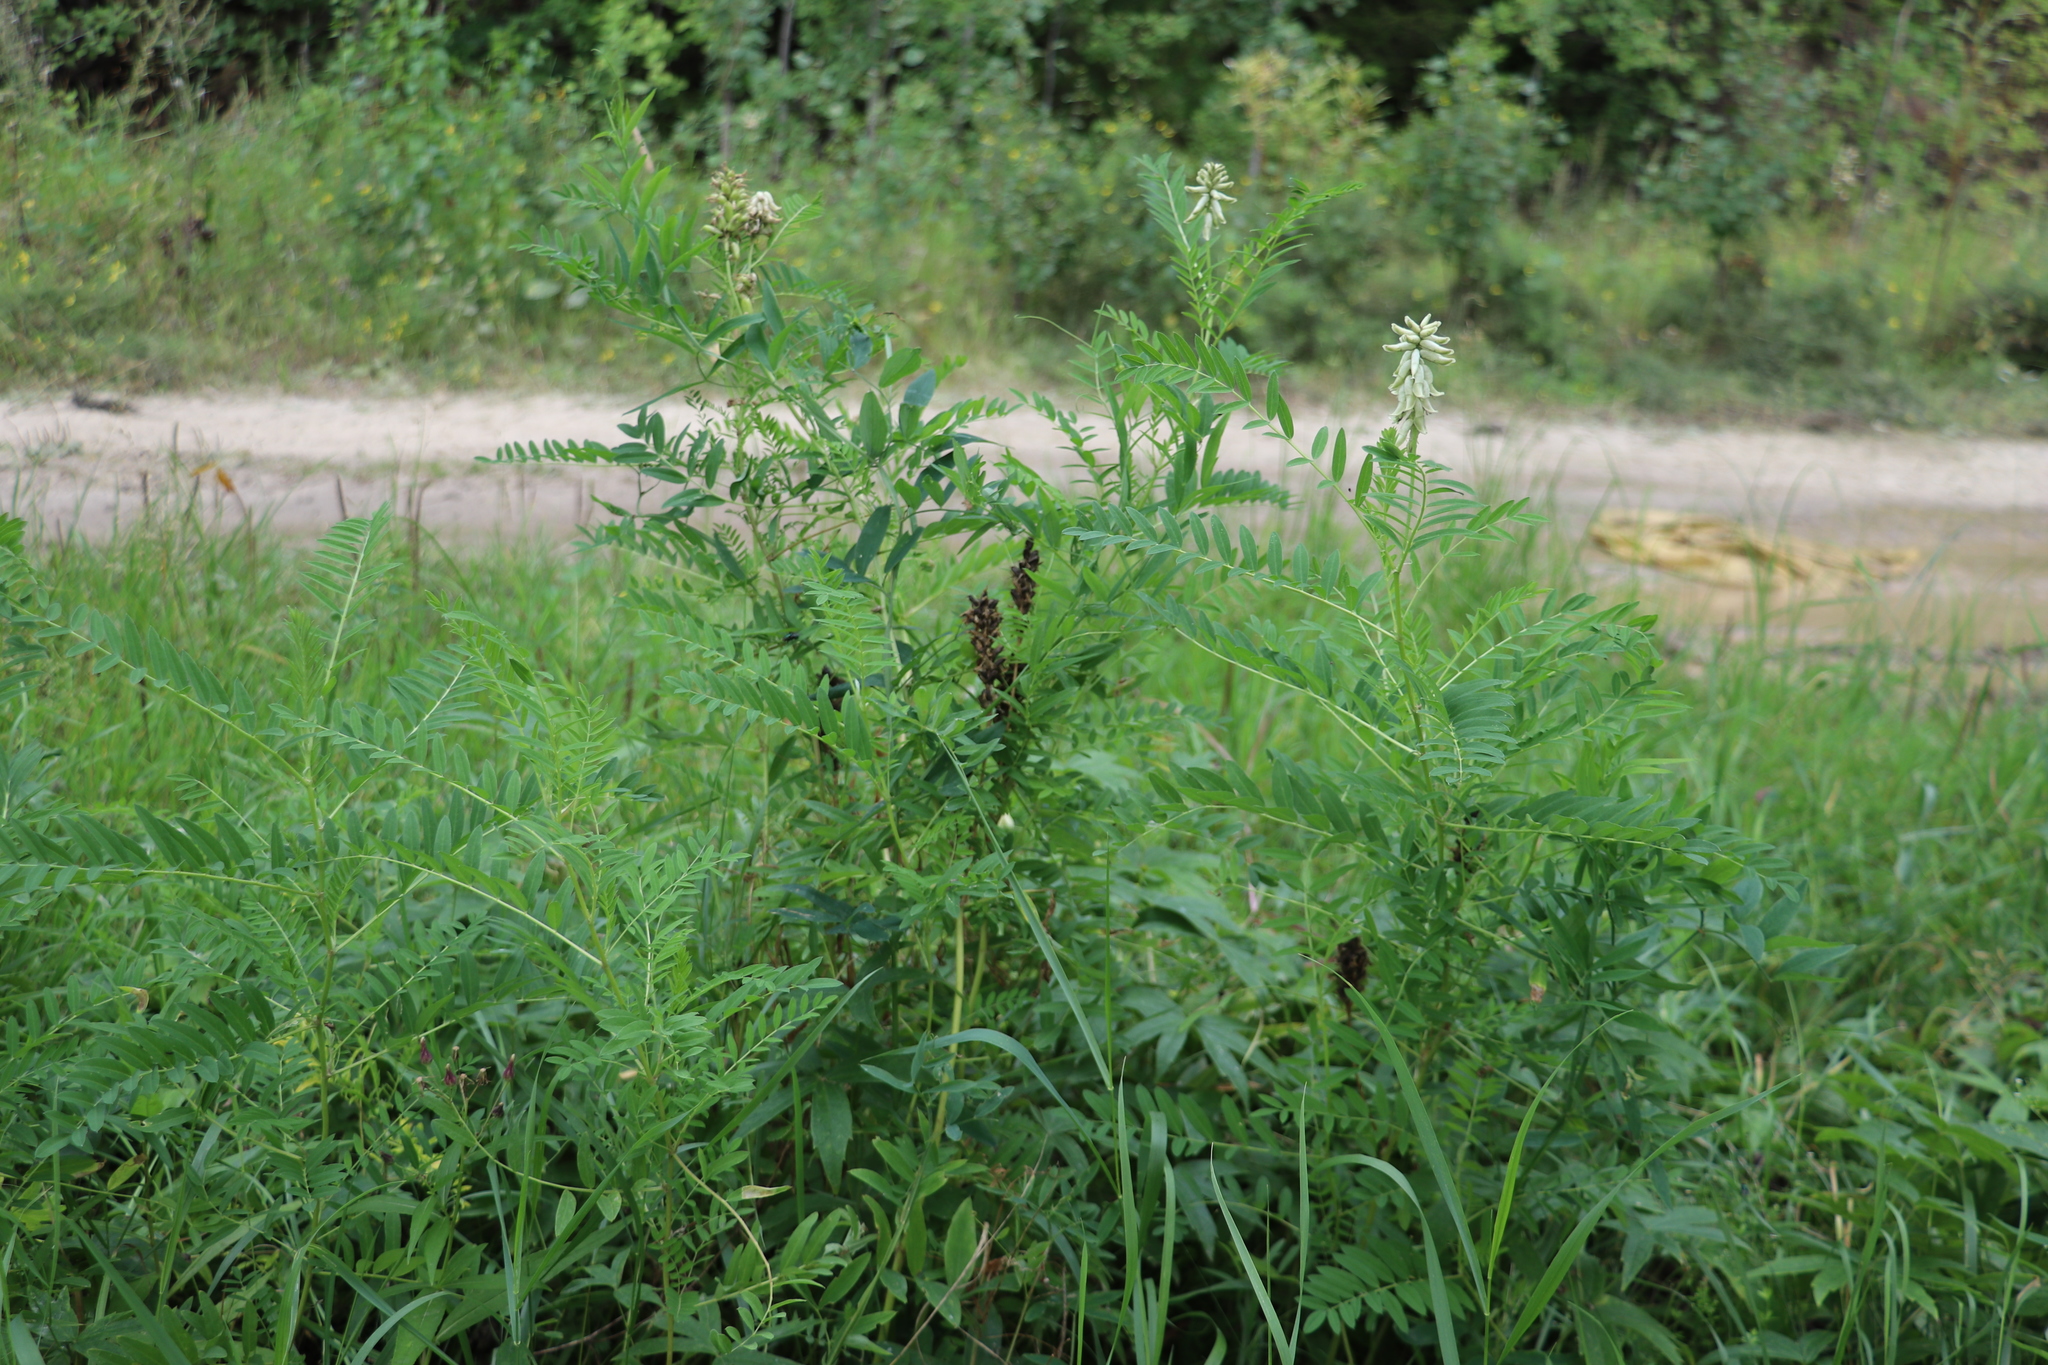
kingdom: Plantae
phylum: Tracheophyta
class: Magnoliopsida
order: Fabales
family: Fabaceae
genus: Astragalus
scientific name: Astragalus uliginosus
